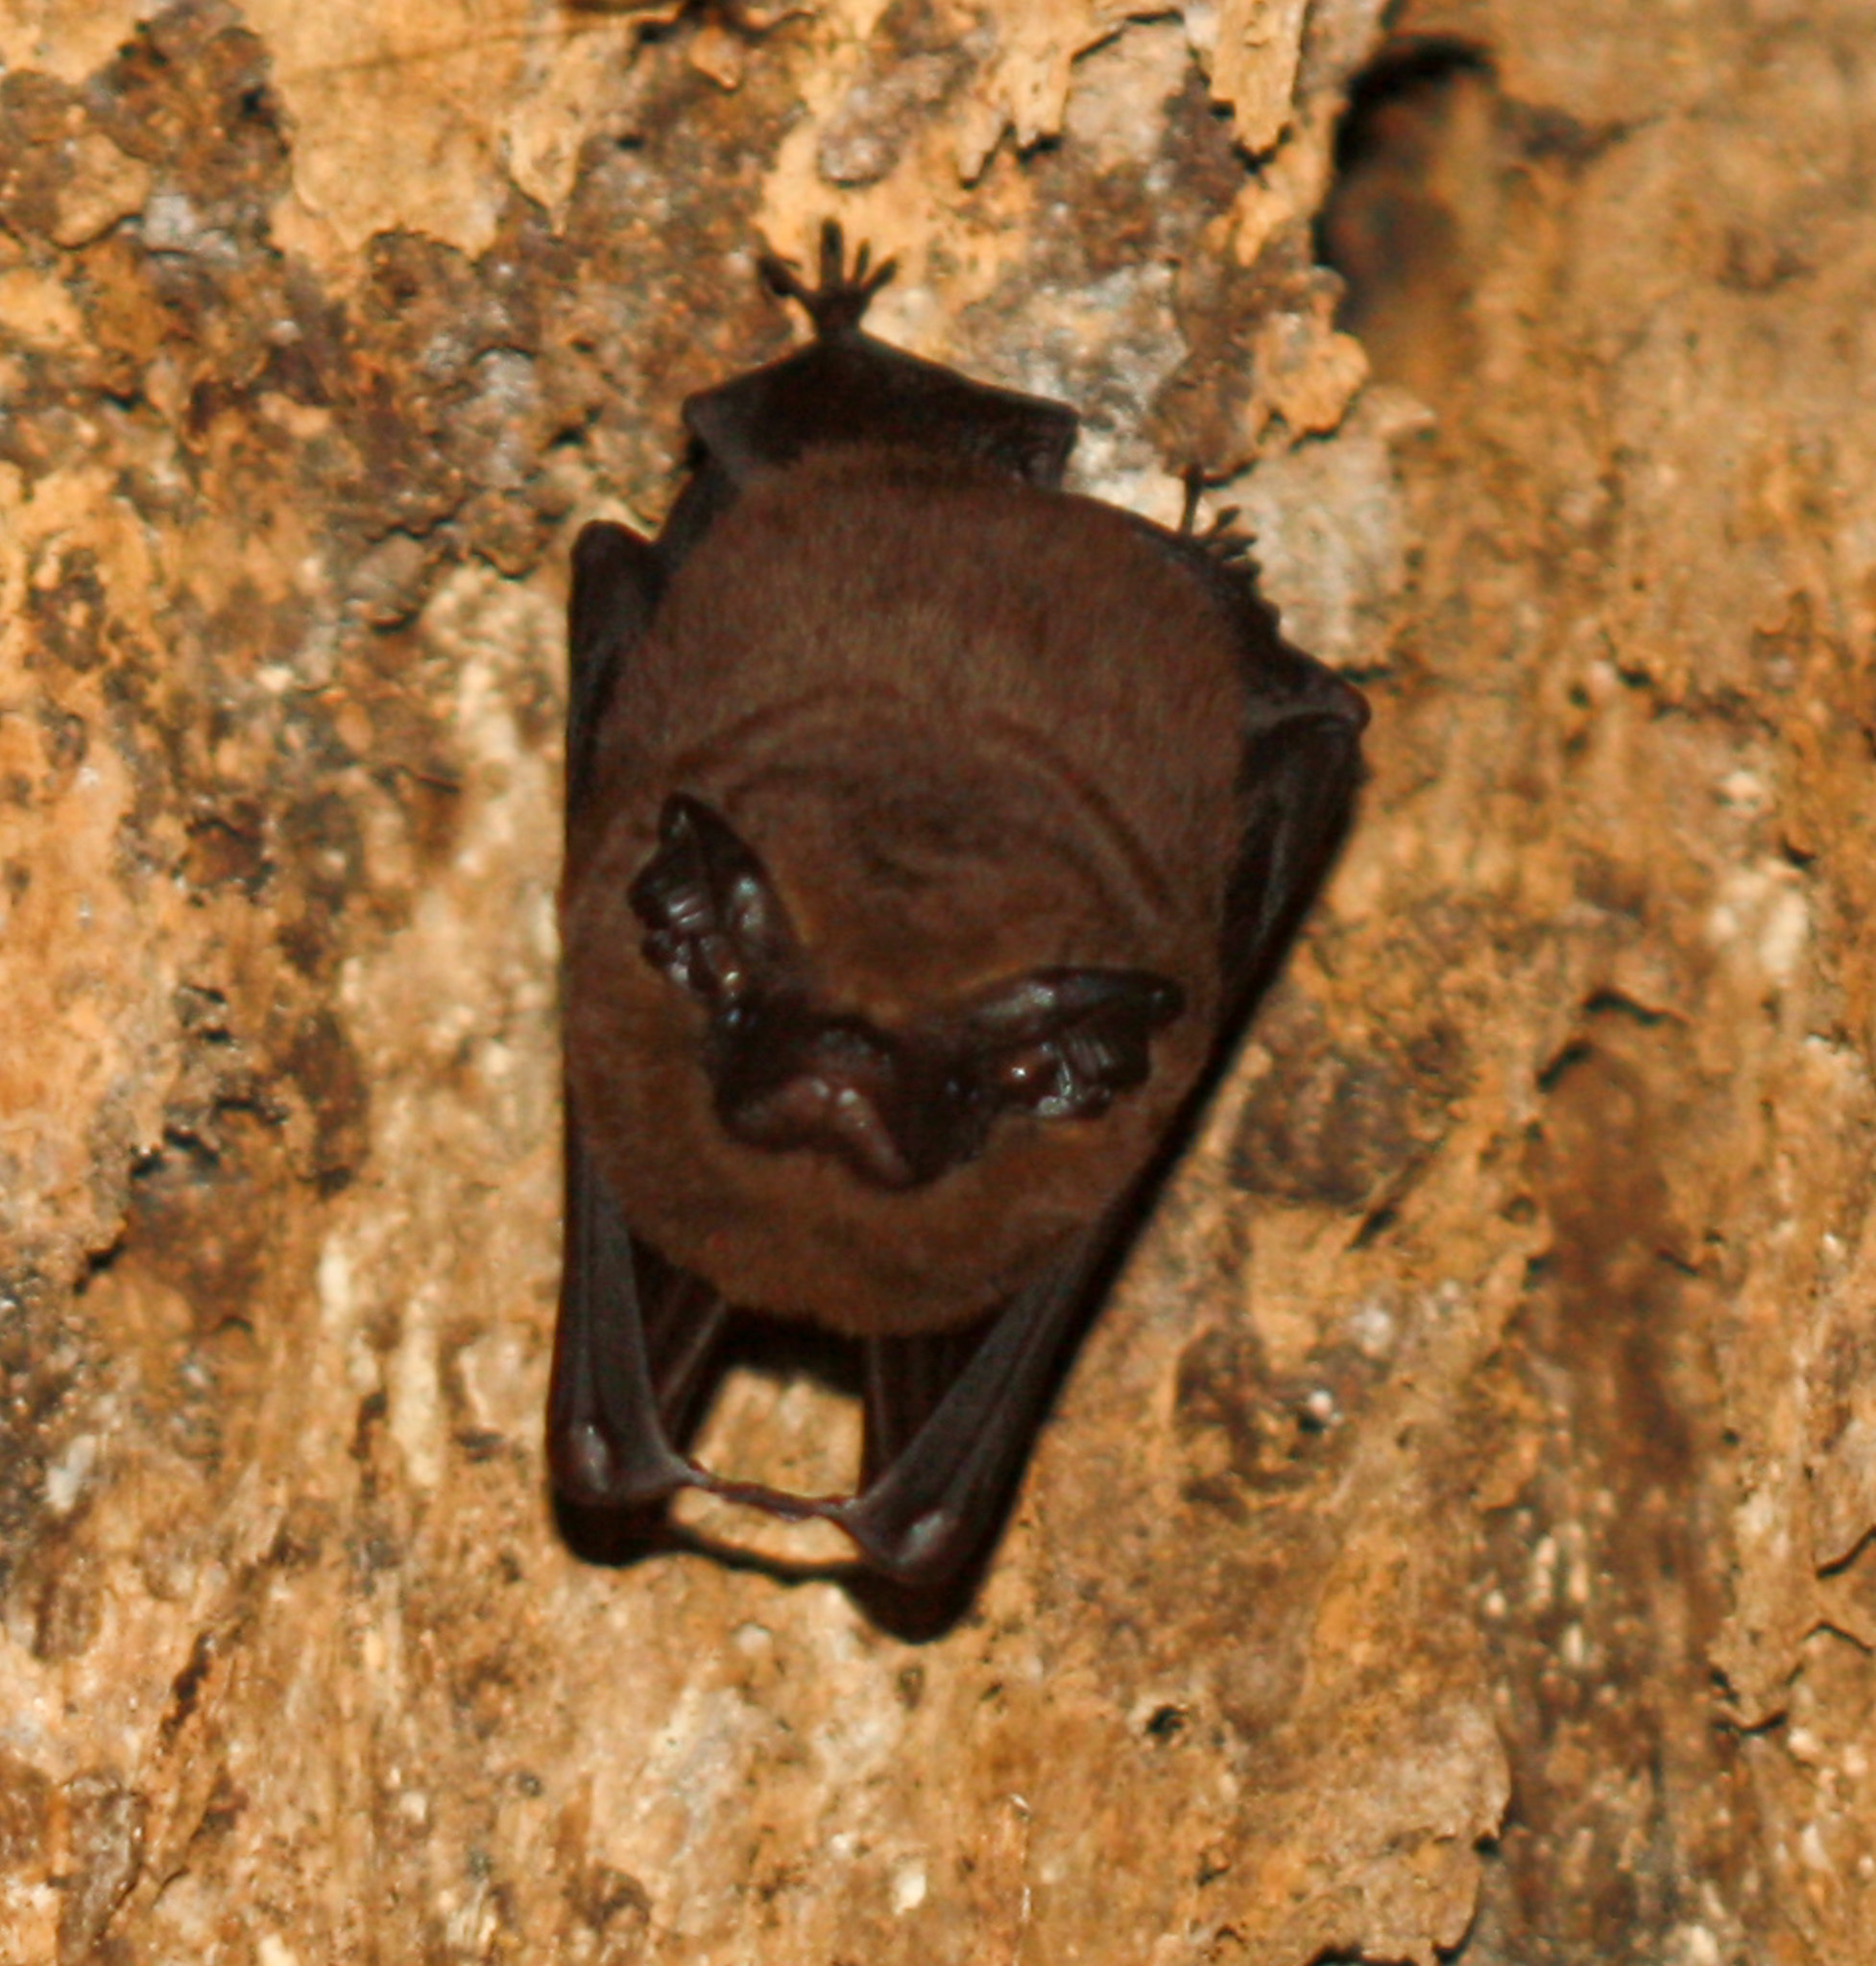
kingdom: Animalia
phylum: Chordata
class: Mammalia
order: Chiroptera
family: Emballonuridae
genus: Peropteryx
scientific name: Peropteryx kappleri
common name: Greater dog-like bat
